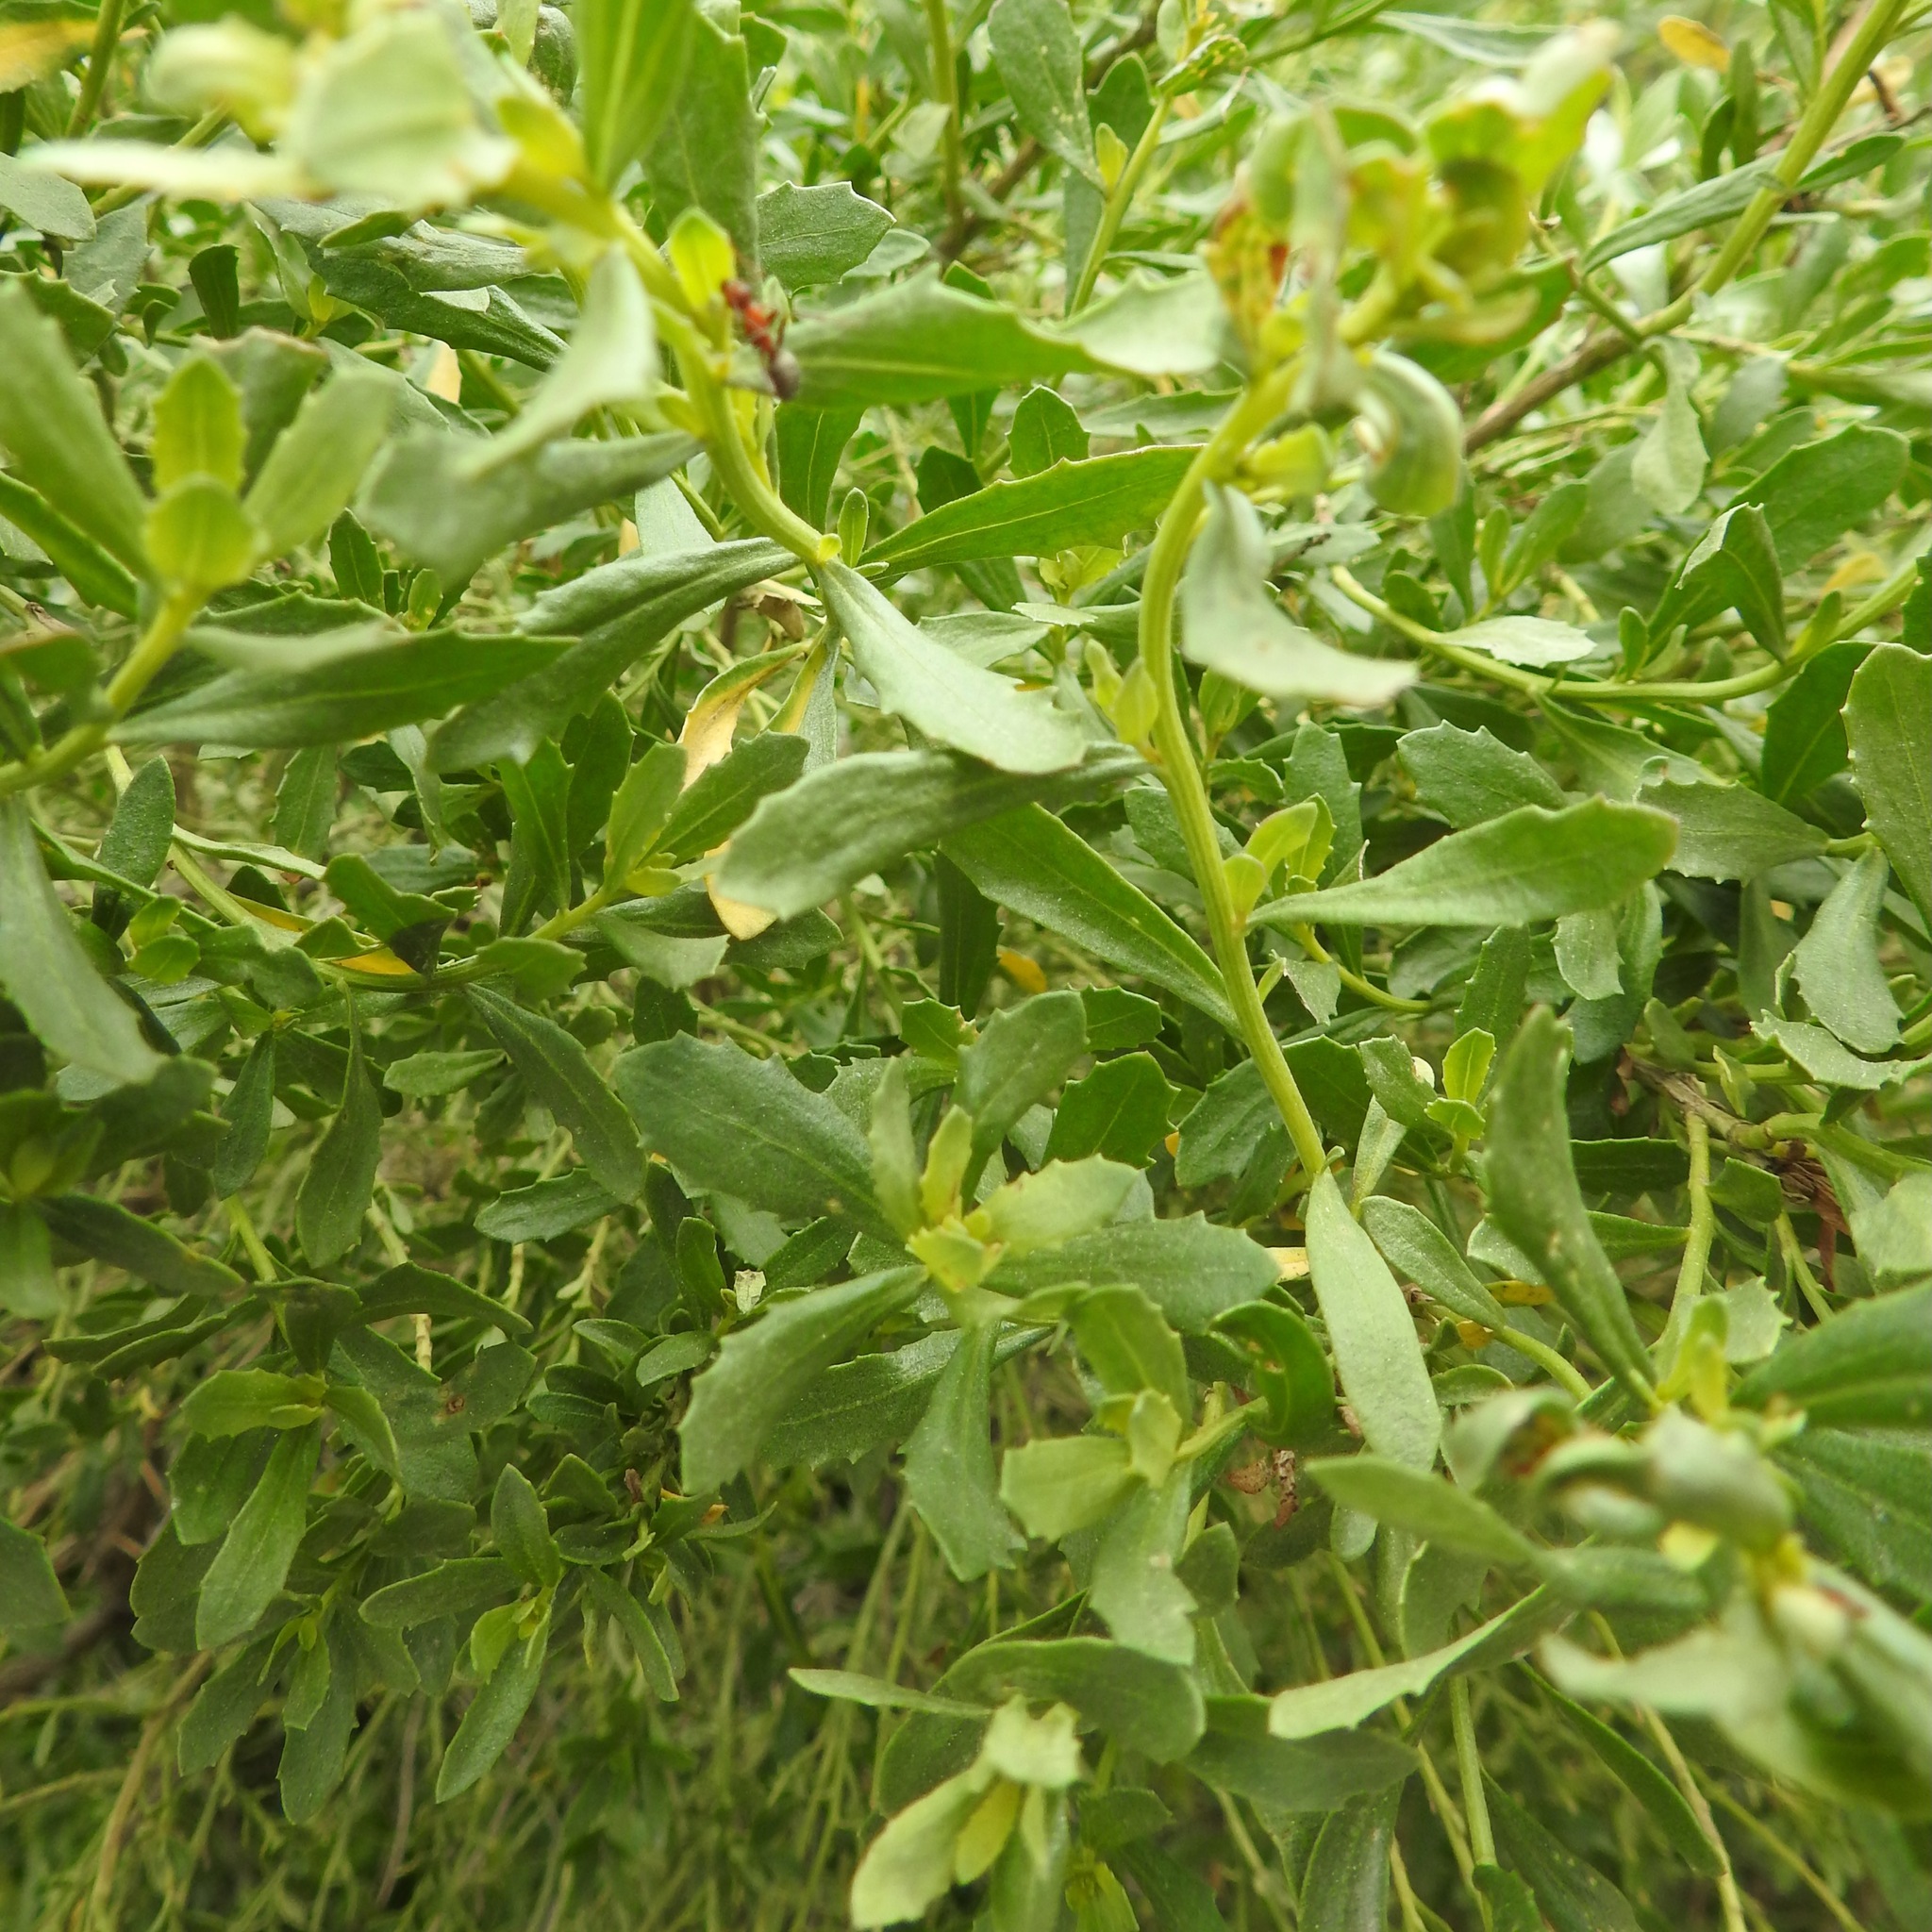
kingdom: Plantae
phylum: Tracheophyta
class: Magnoliopsida
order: Asterales
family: Asteraceae
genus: Baccharis
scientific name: Baccharis pilularis
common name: Coyotebrush
